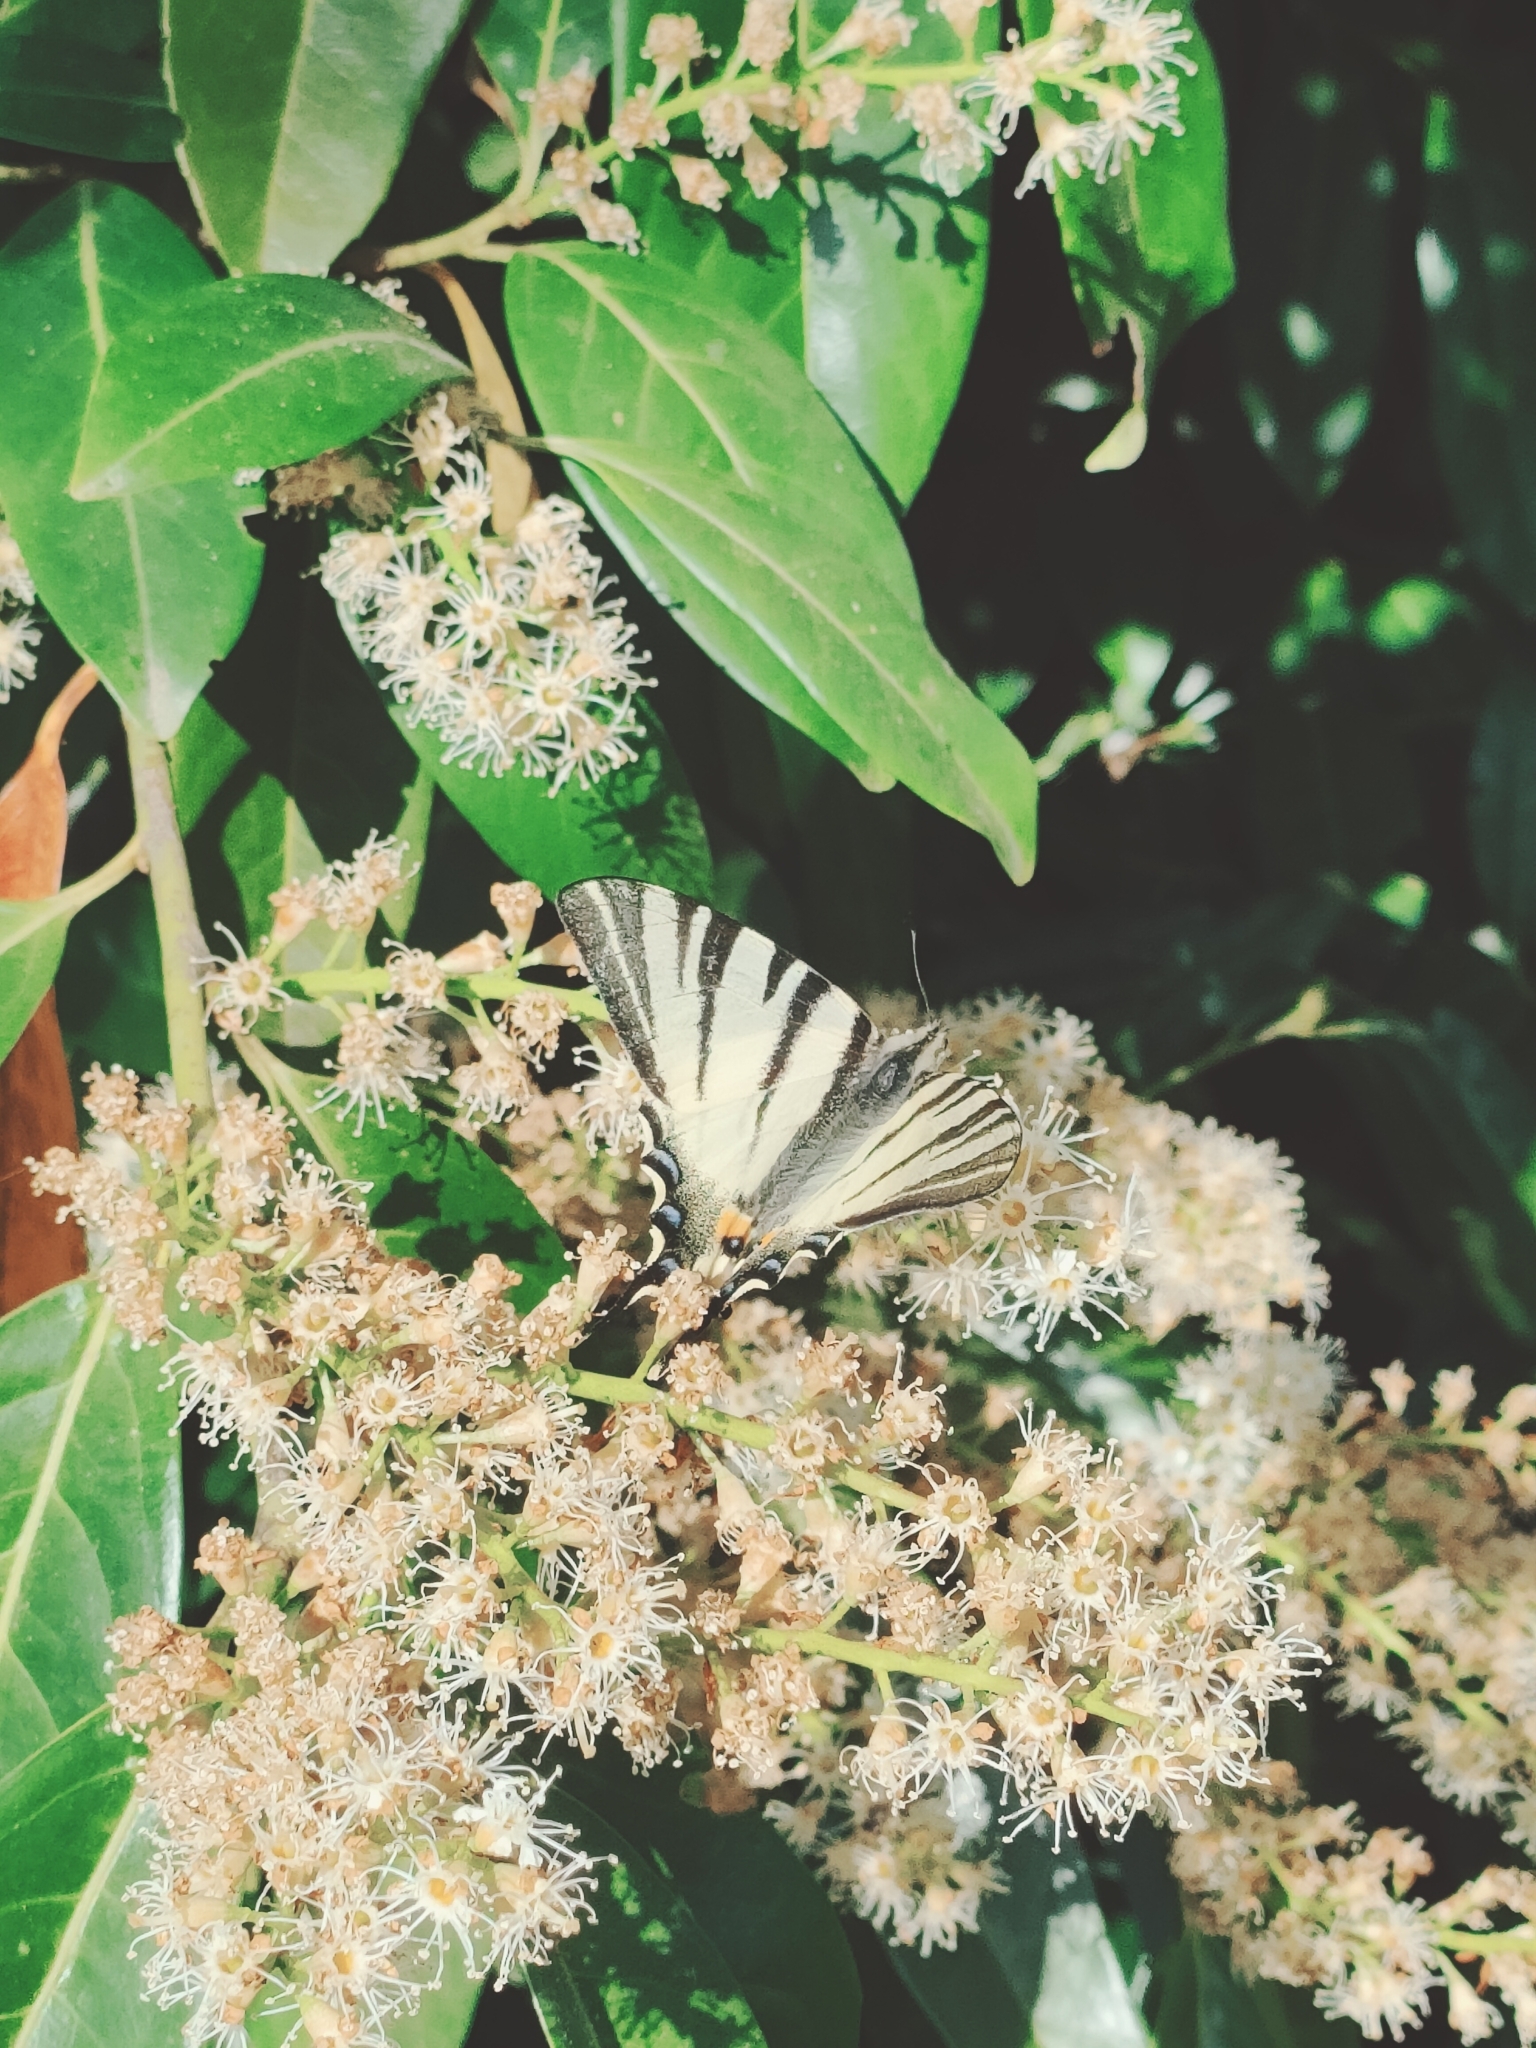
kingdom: Animalia
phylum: Arthropoda
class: Insecta
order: Lepidoptera
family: Papilionidae
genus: Iphiclides
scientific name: Iphiclides podalirius
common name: Scarce swallowtail
